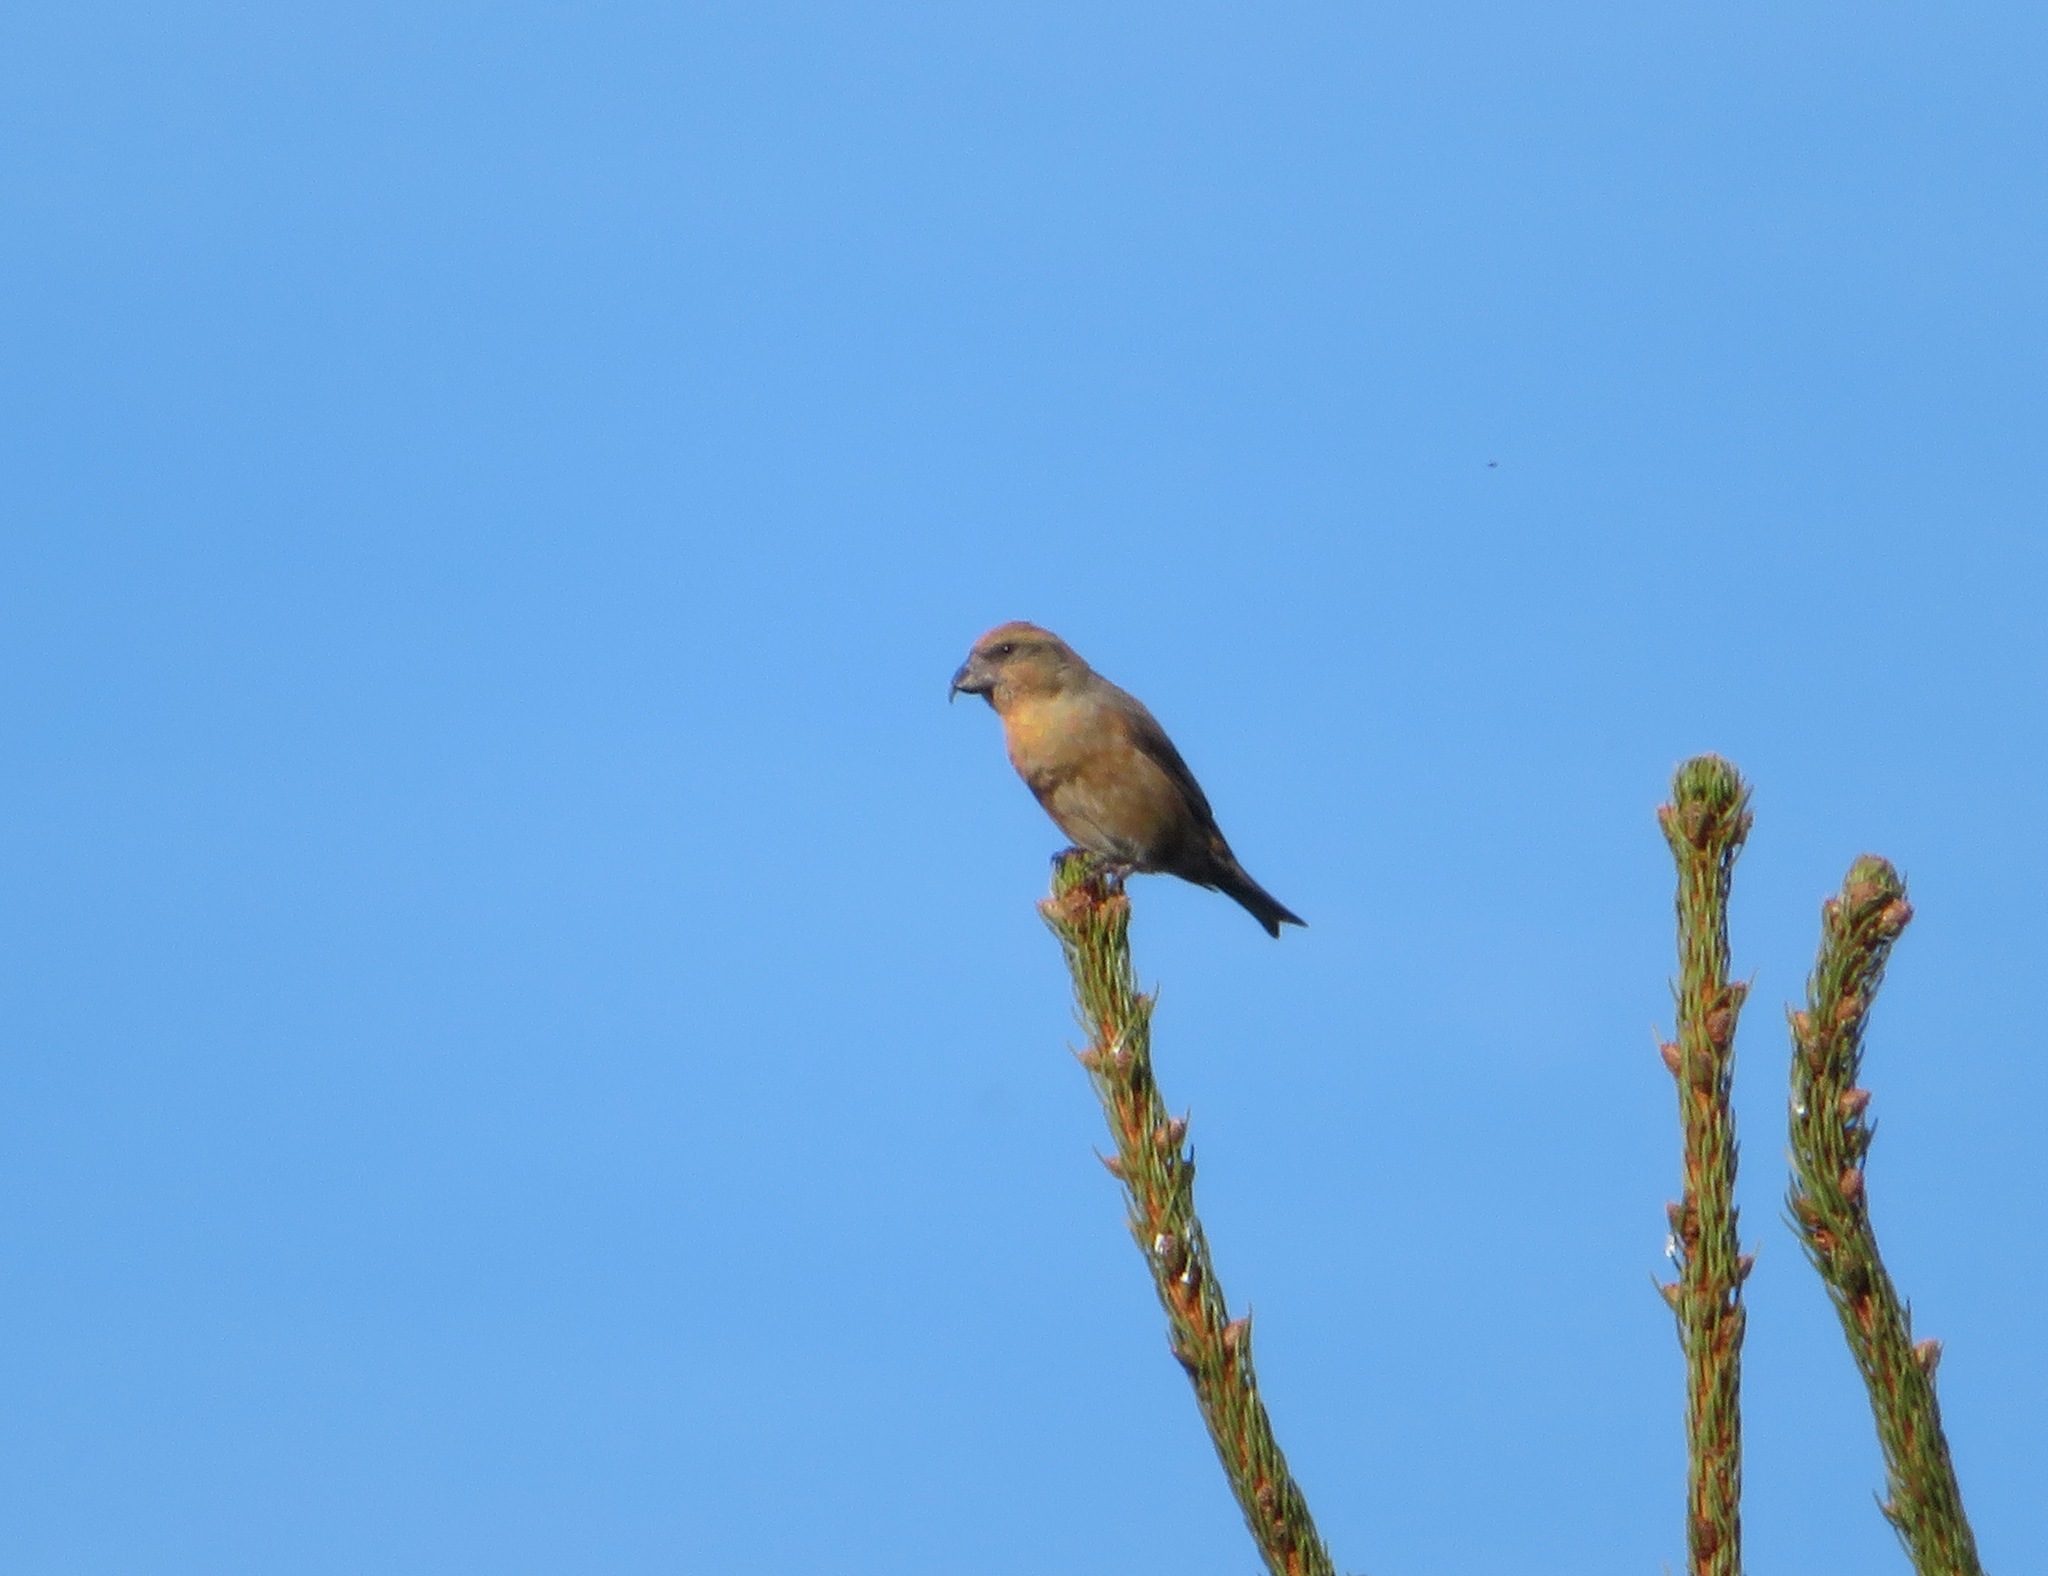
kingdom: Animalia
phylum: Chordata
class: Aves
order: Passeriformes
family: Fringillidae
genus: Loxia
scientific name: Loxia curvirostra
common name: Red crossbill
